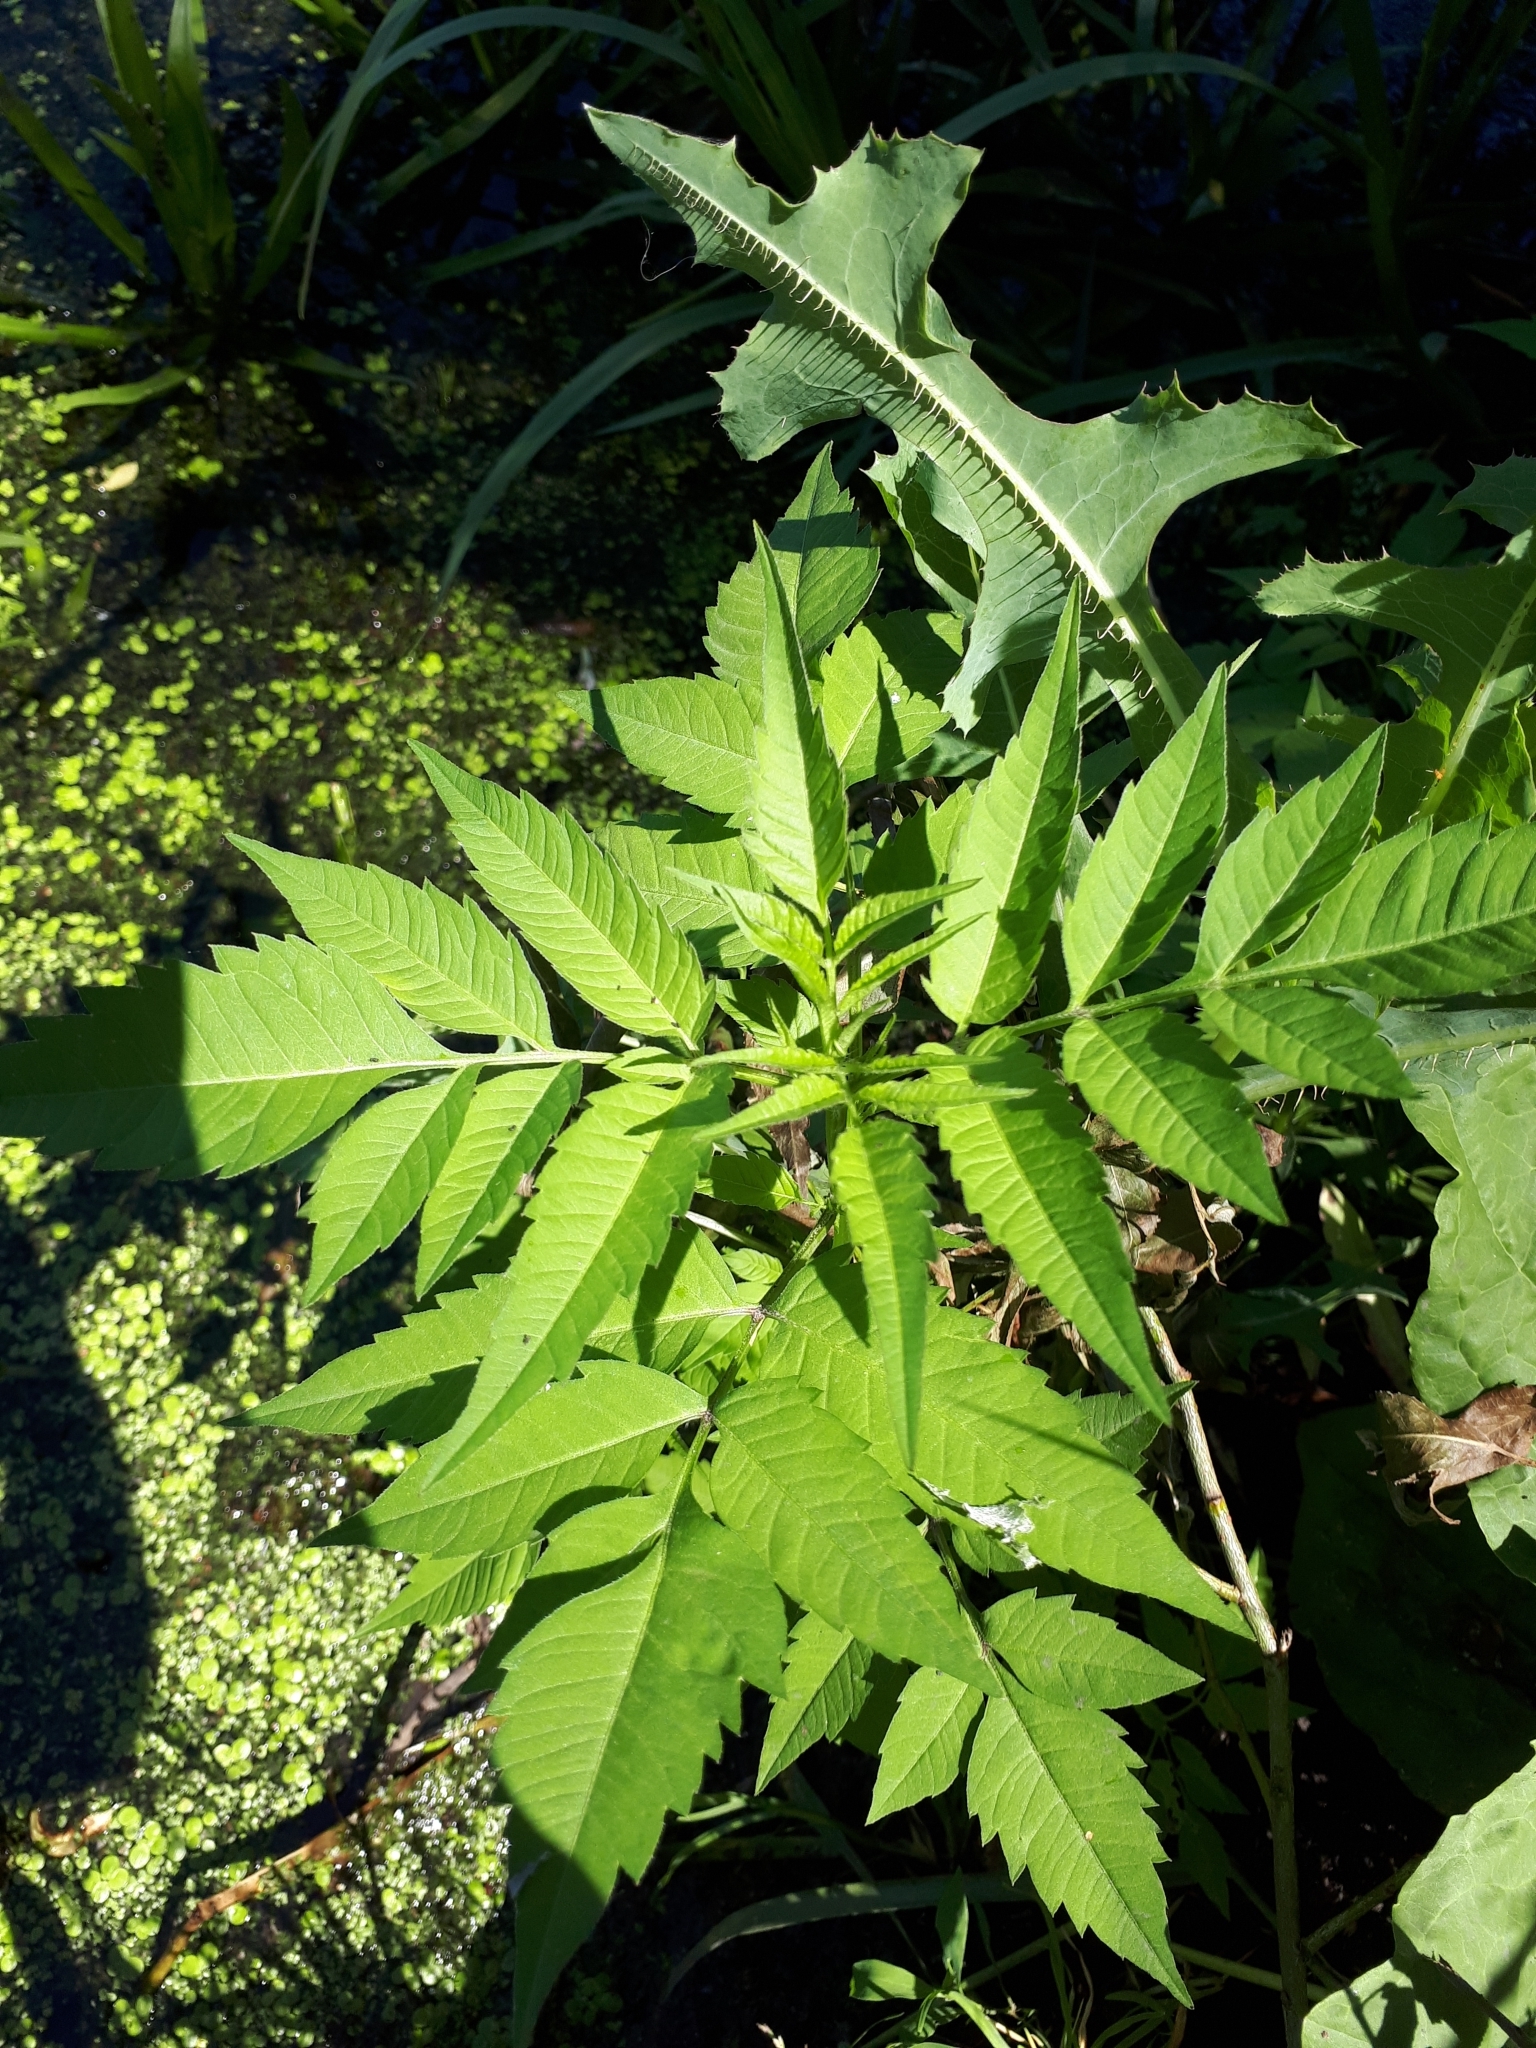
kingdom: Plantae
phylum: Tracheophyta
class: Magnoliopsida
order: Asterales
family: Asteraceae
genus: Bidens
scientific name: Bidens frondosa
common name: Beggarticks
